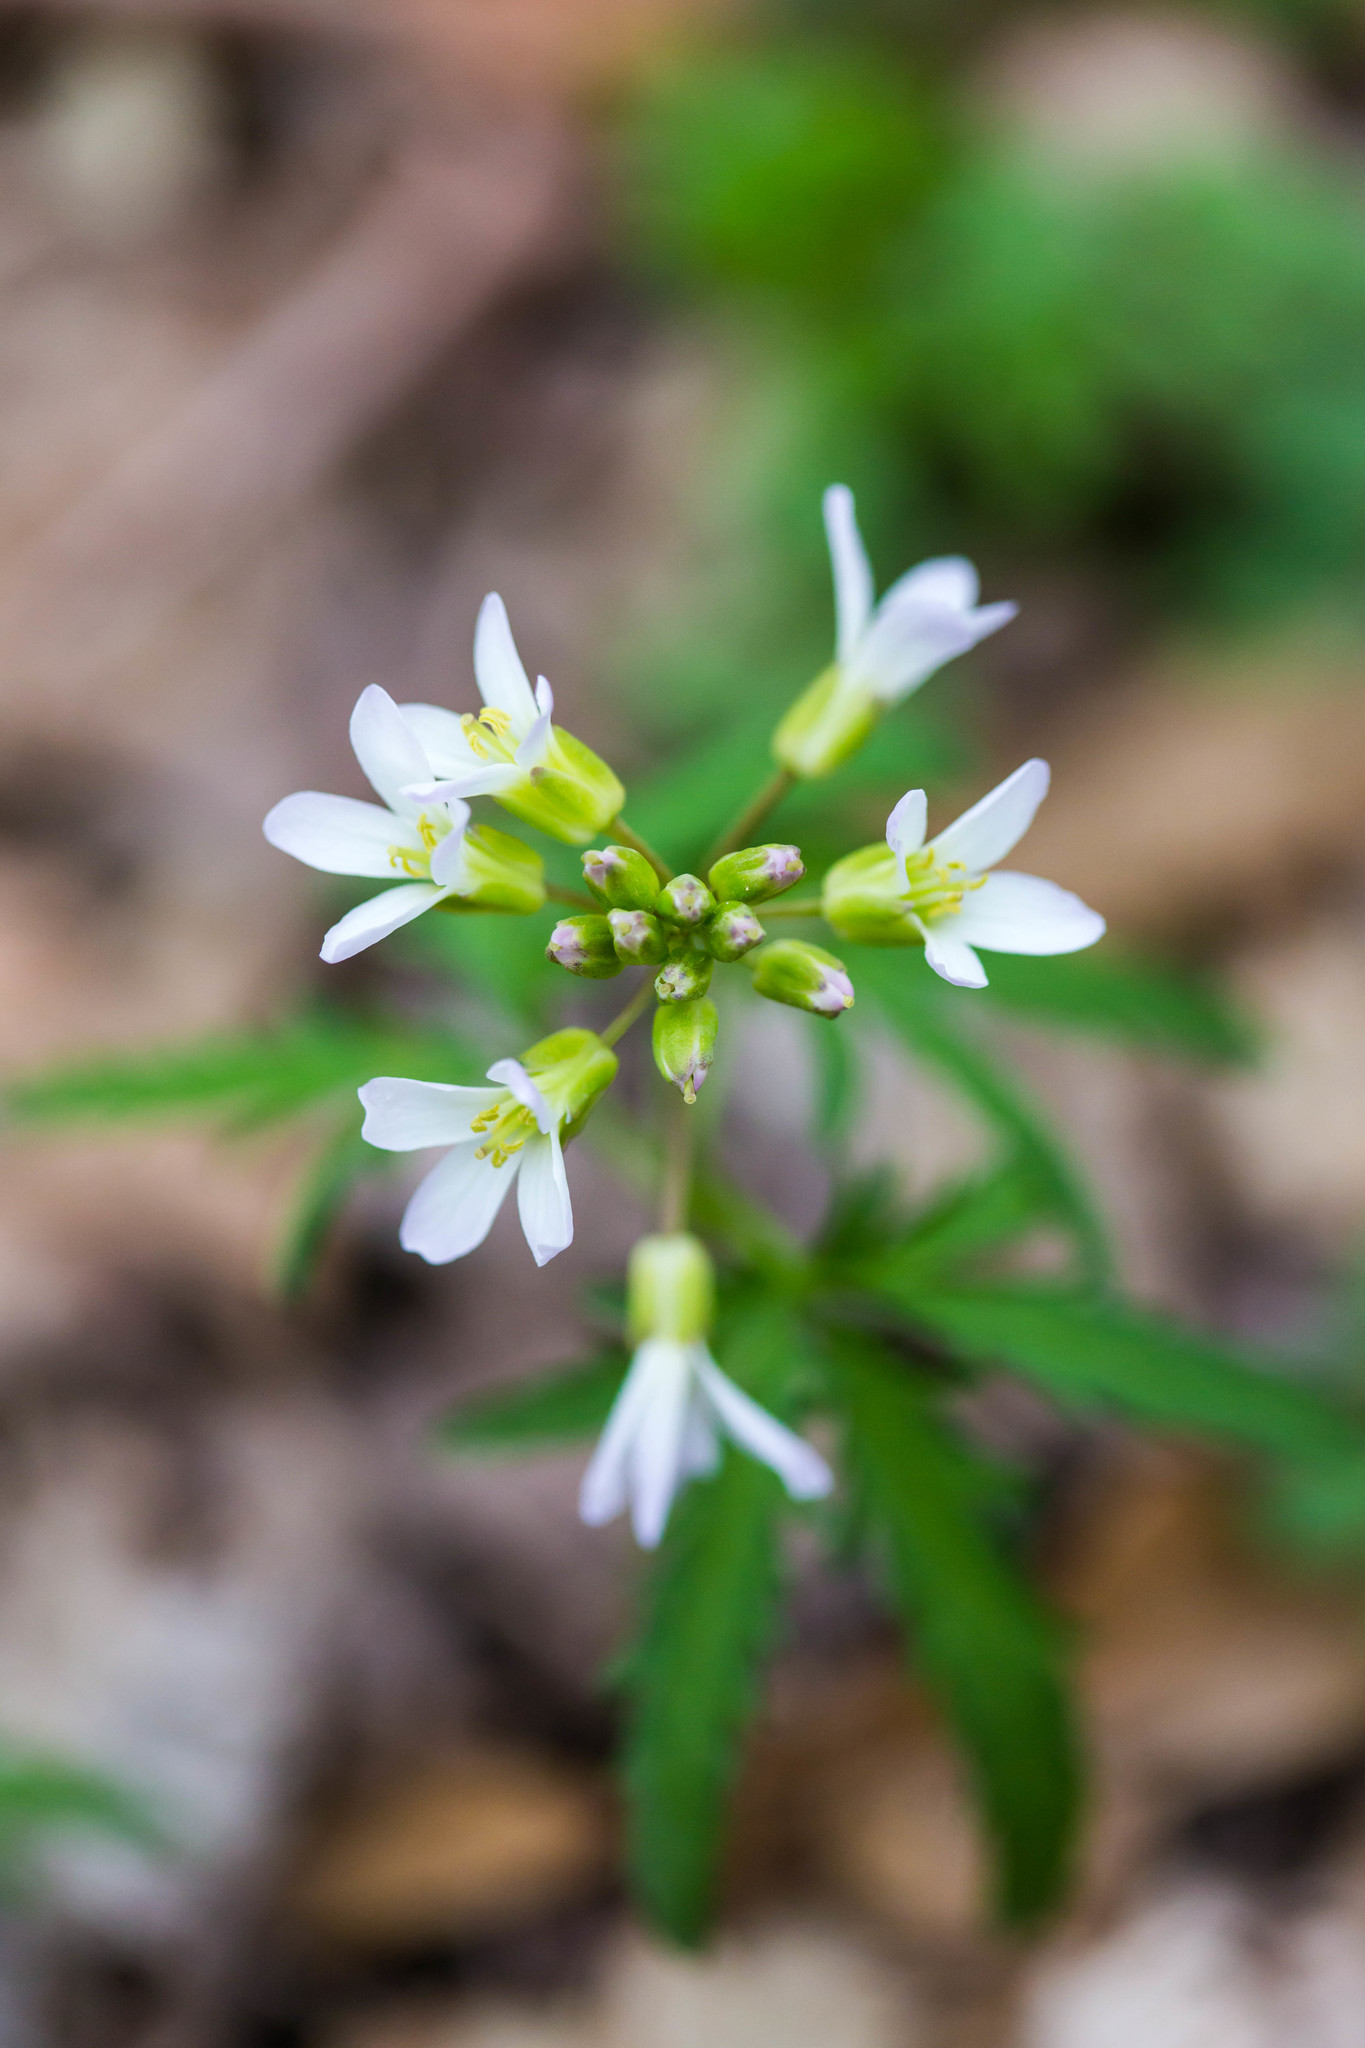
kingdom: Plantae
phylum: Tracheophyta
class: Magnoliopsida
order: Brassicales
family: Brassicaceae
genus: Cardamine
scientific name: Cardamine concatenata
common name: Cut-leaf toothcup
